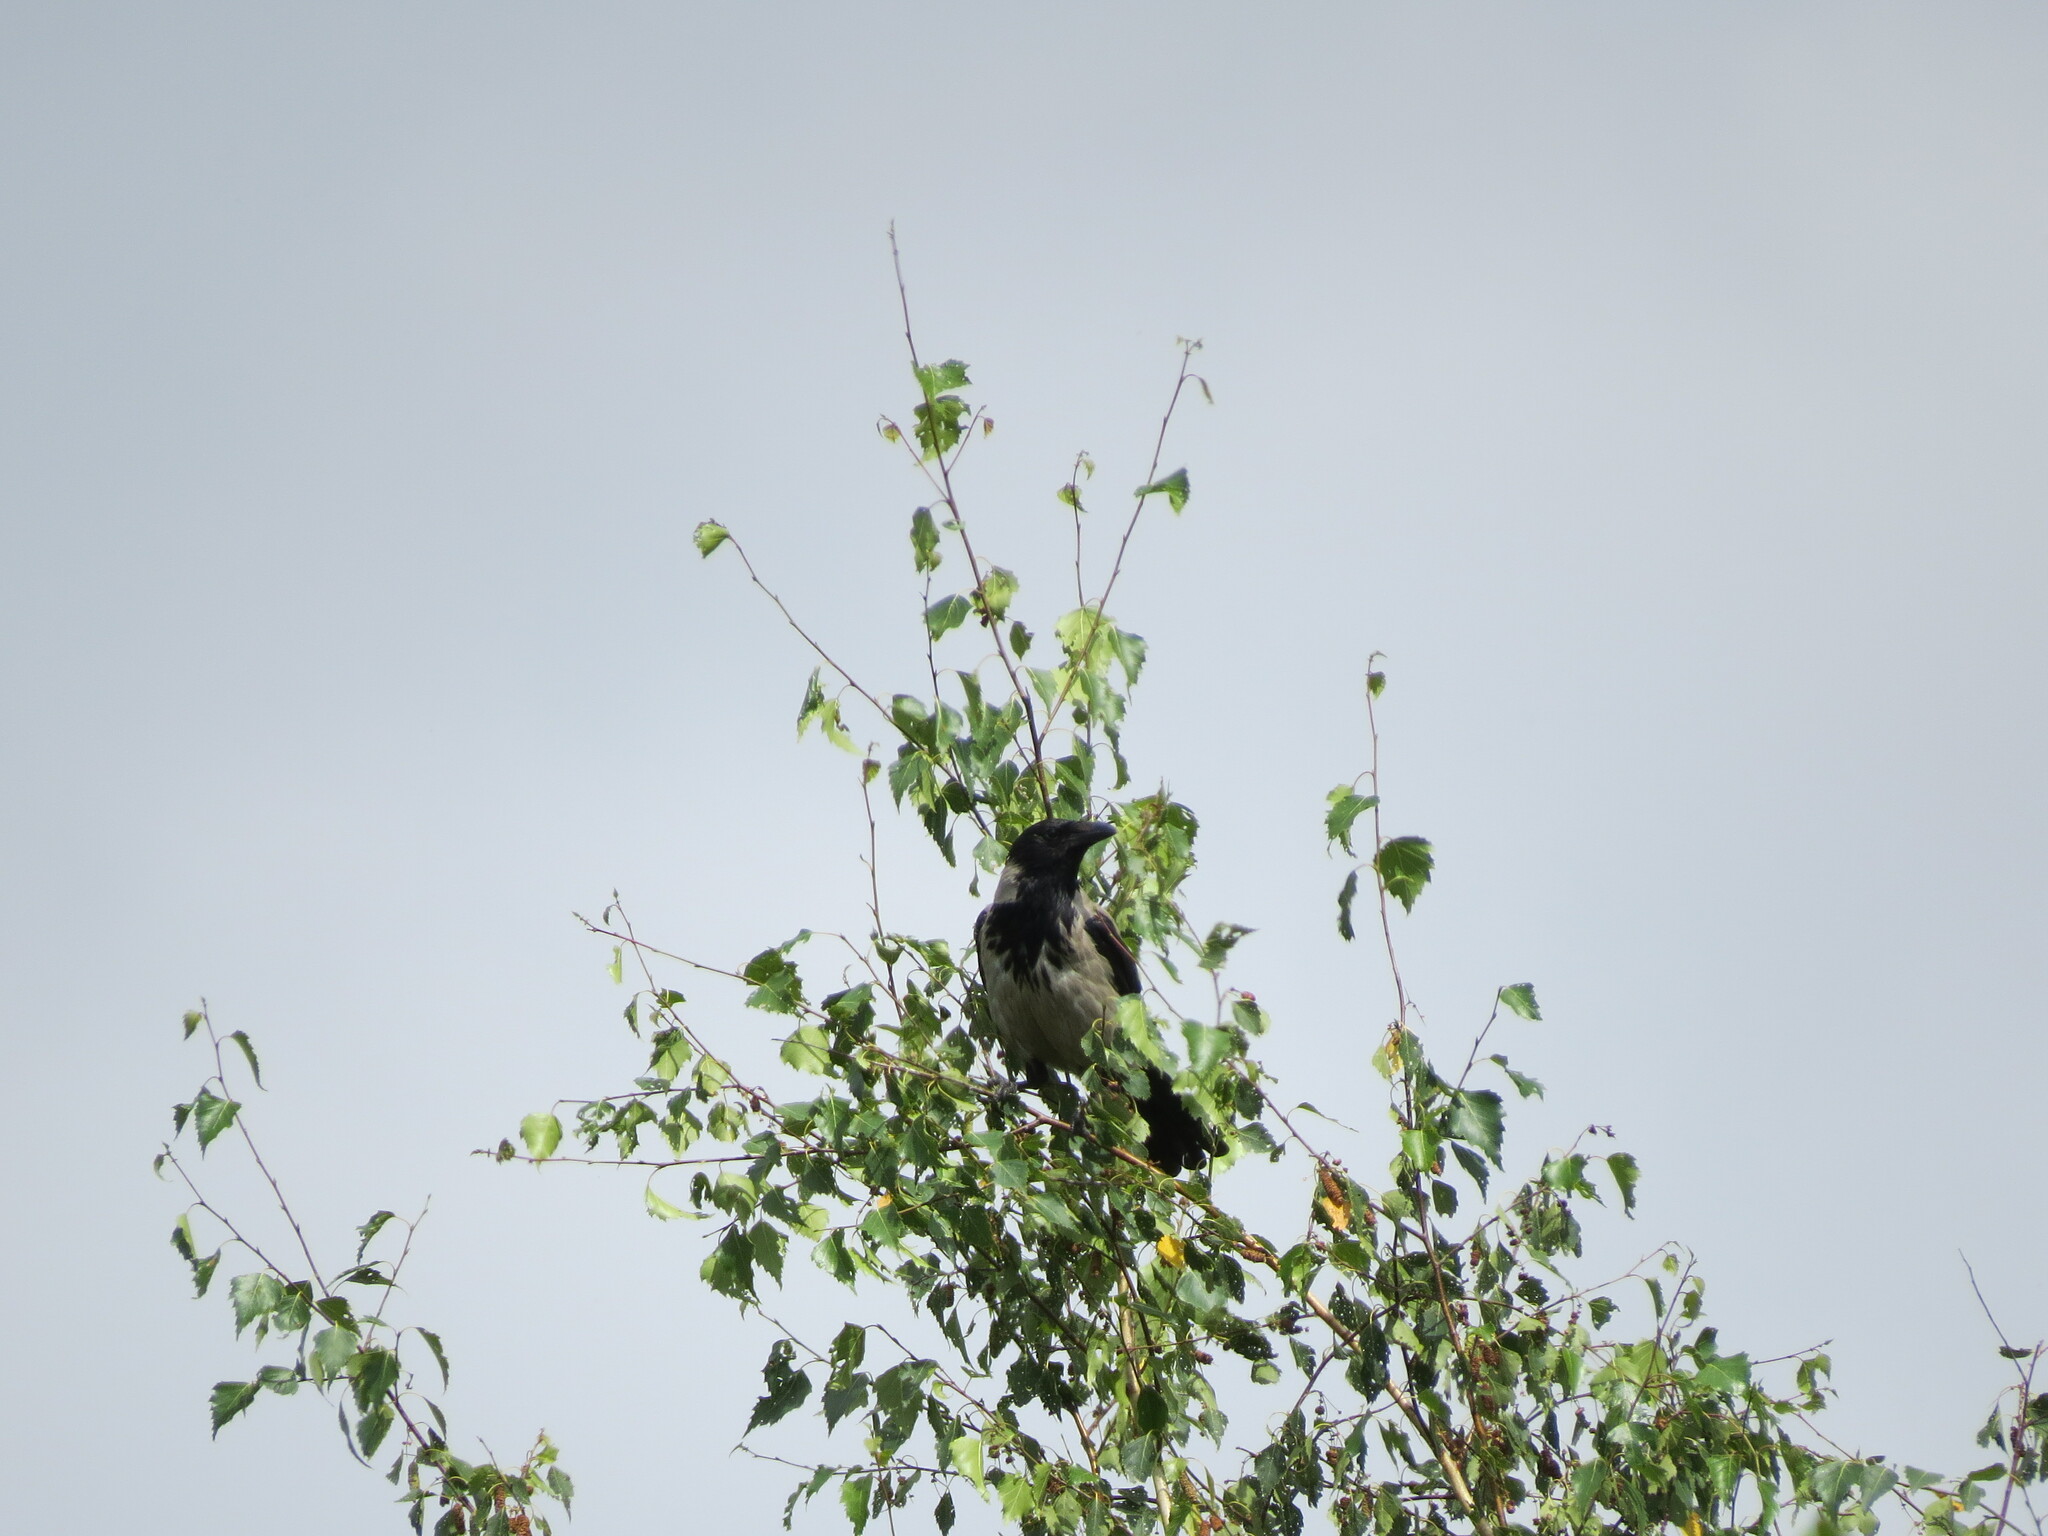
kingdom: Animalia
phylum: Chordata
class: Aves
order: Passeriformes
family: Corvidae
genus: Corvus
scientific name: Corvus cornix
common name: Hooded crow
